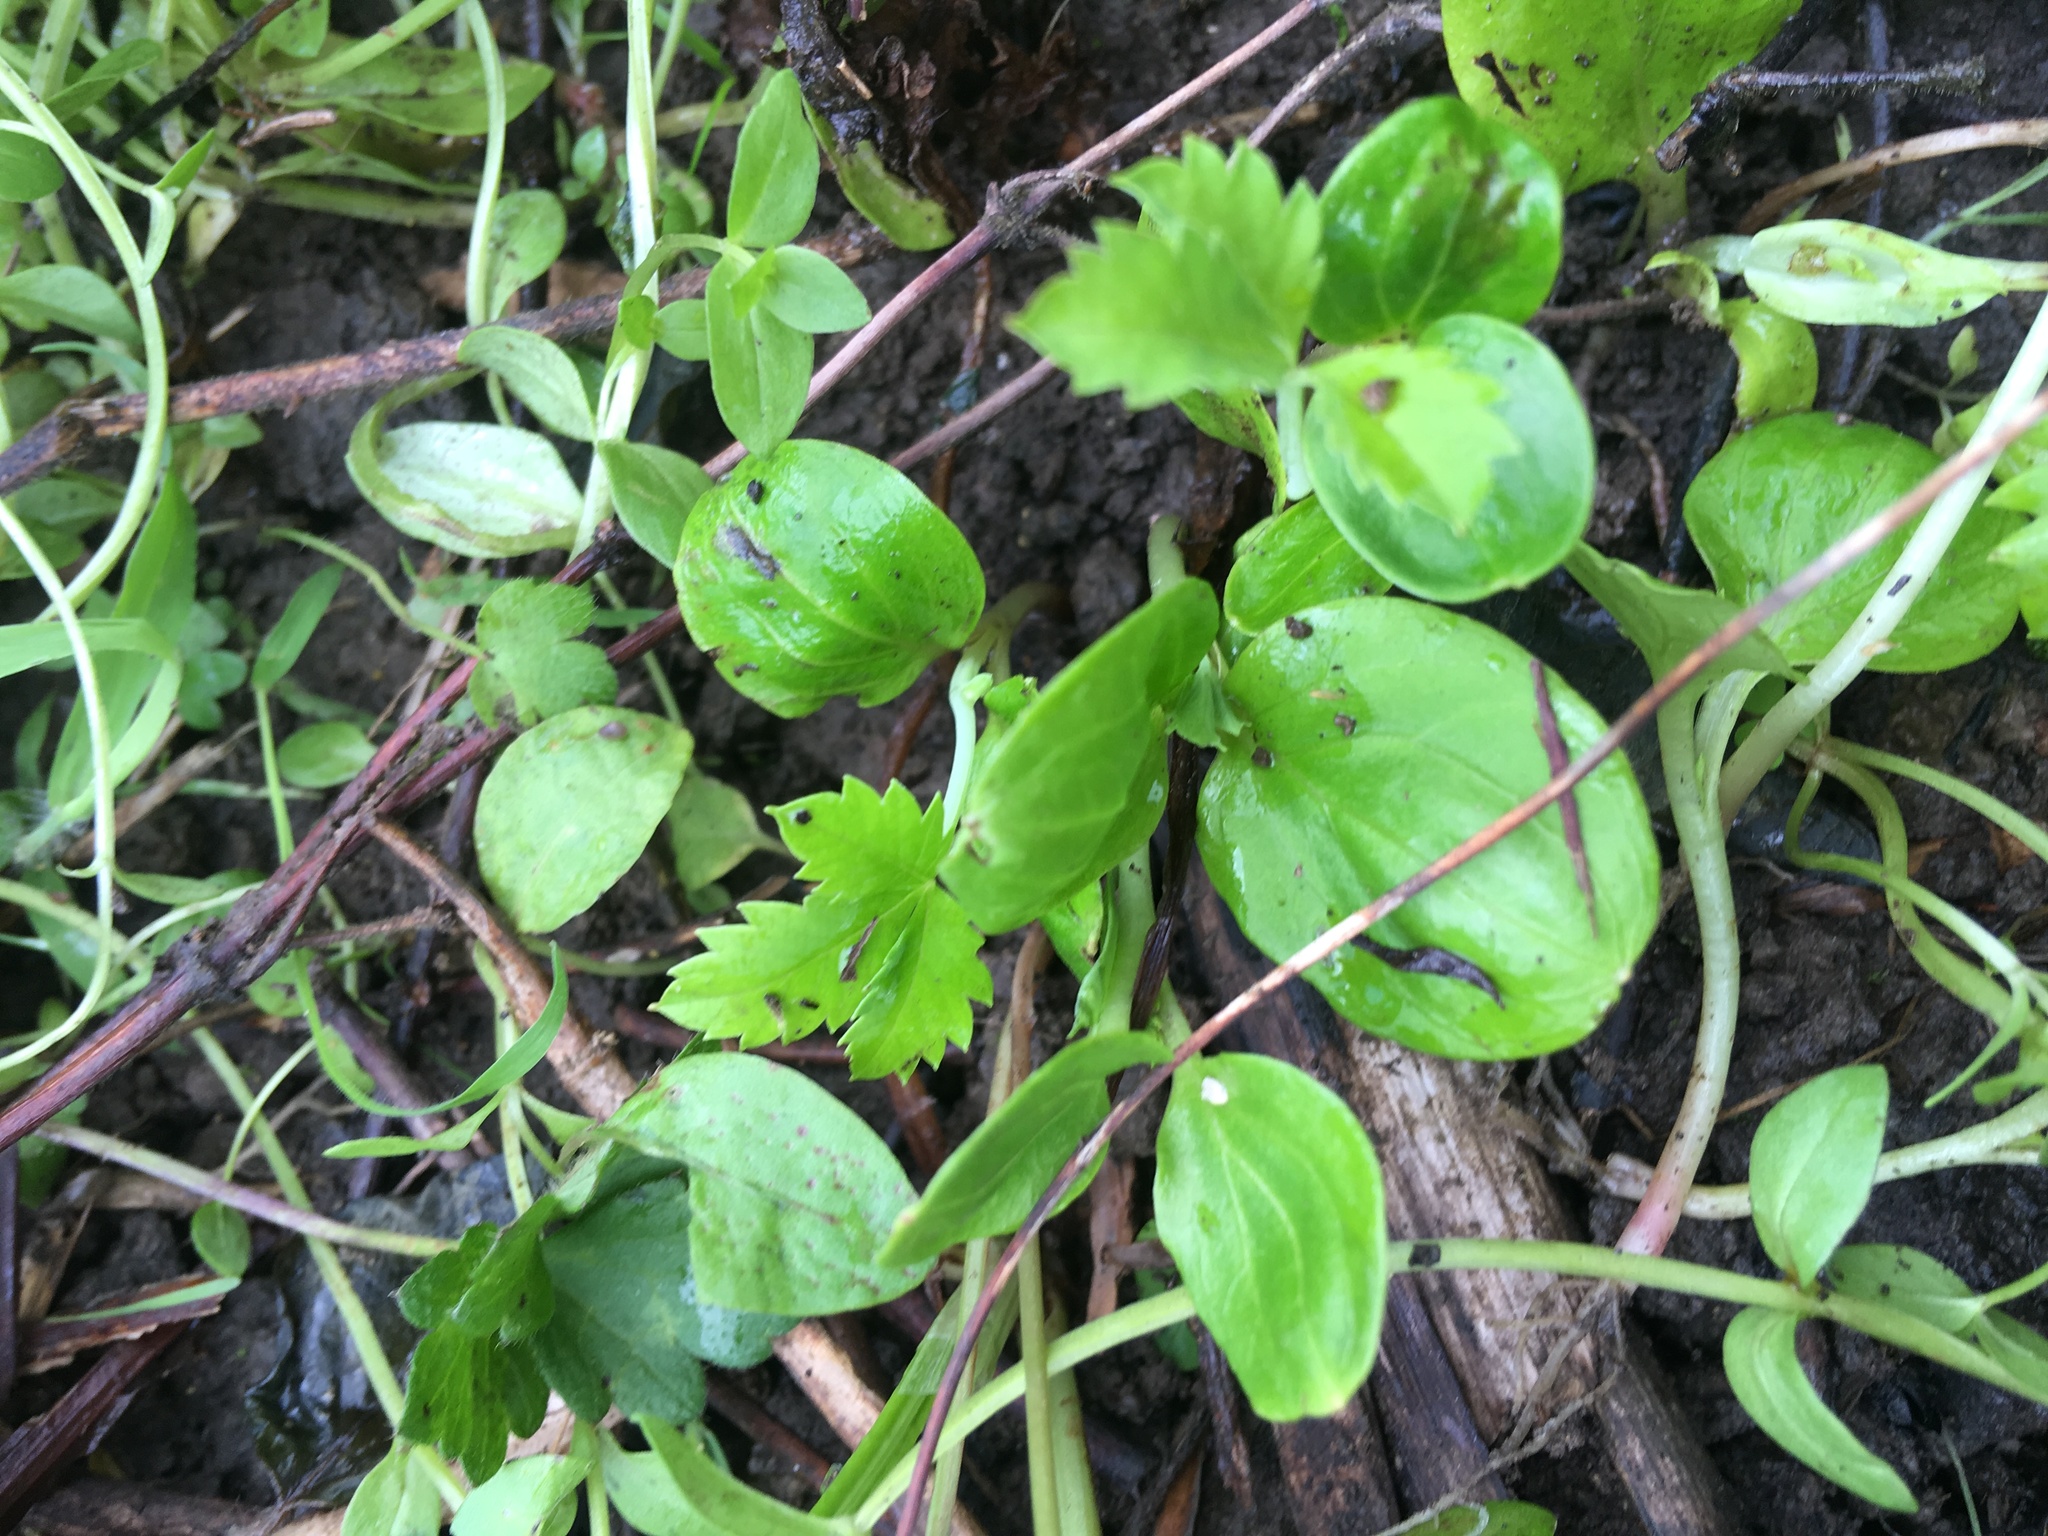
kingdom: Plantae
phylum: Tracheophyta
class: Magnoliopsida
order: Geraniales
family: Melianthaceae
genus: Melianthus
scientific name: Melianthus major
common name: Honey-flower
